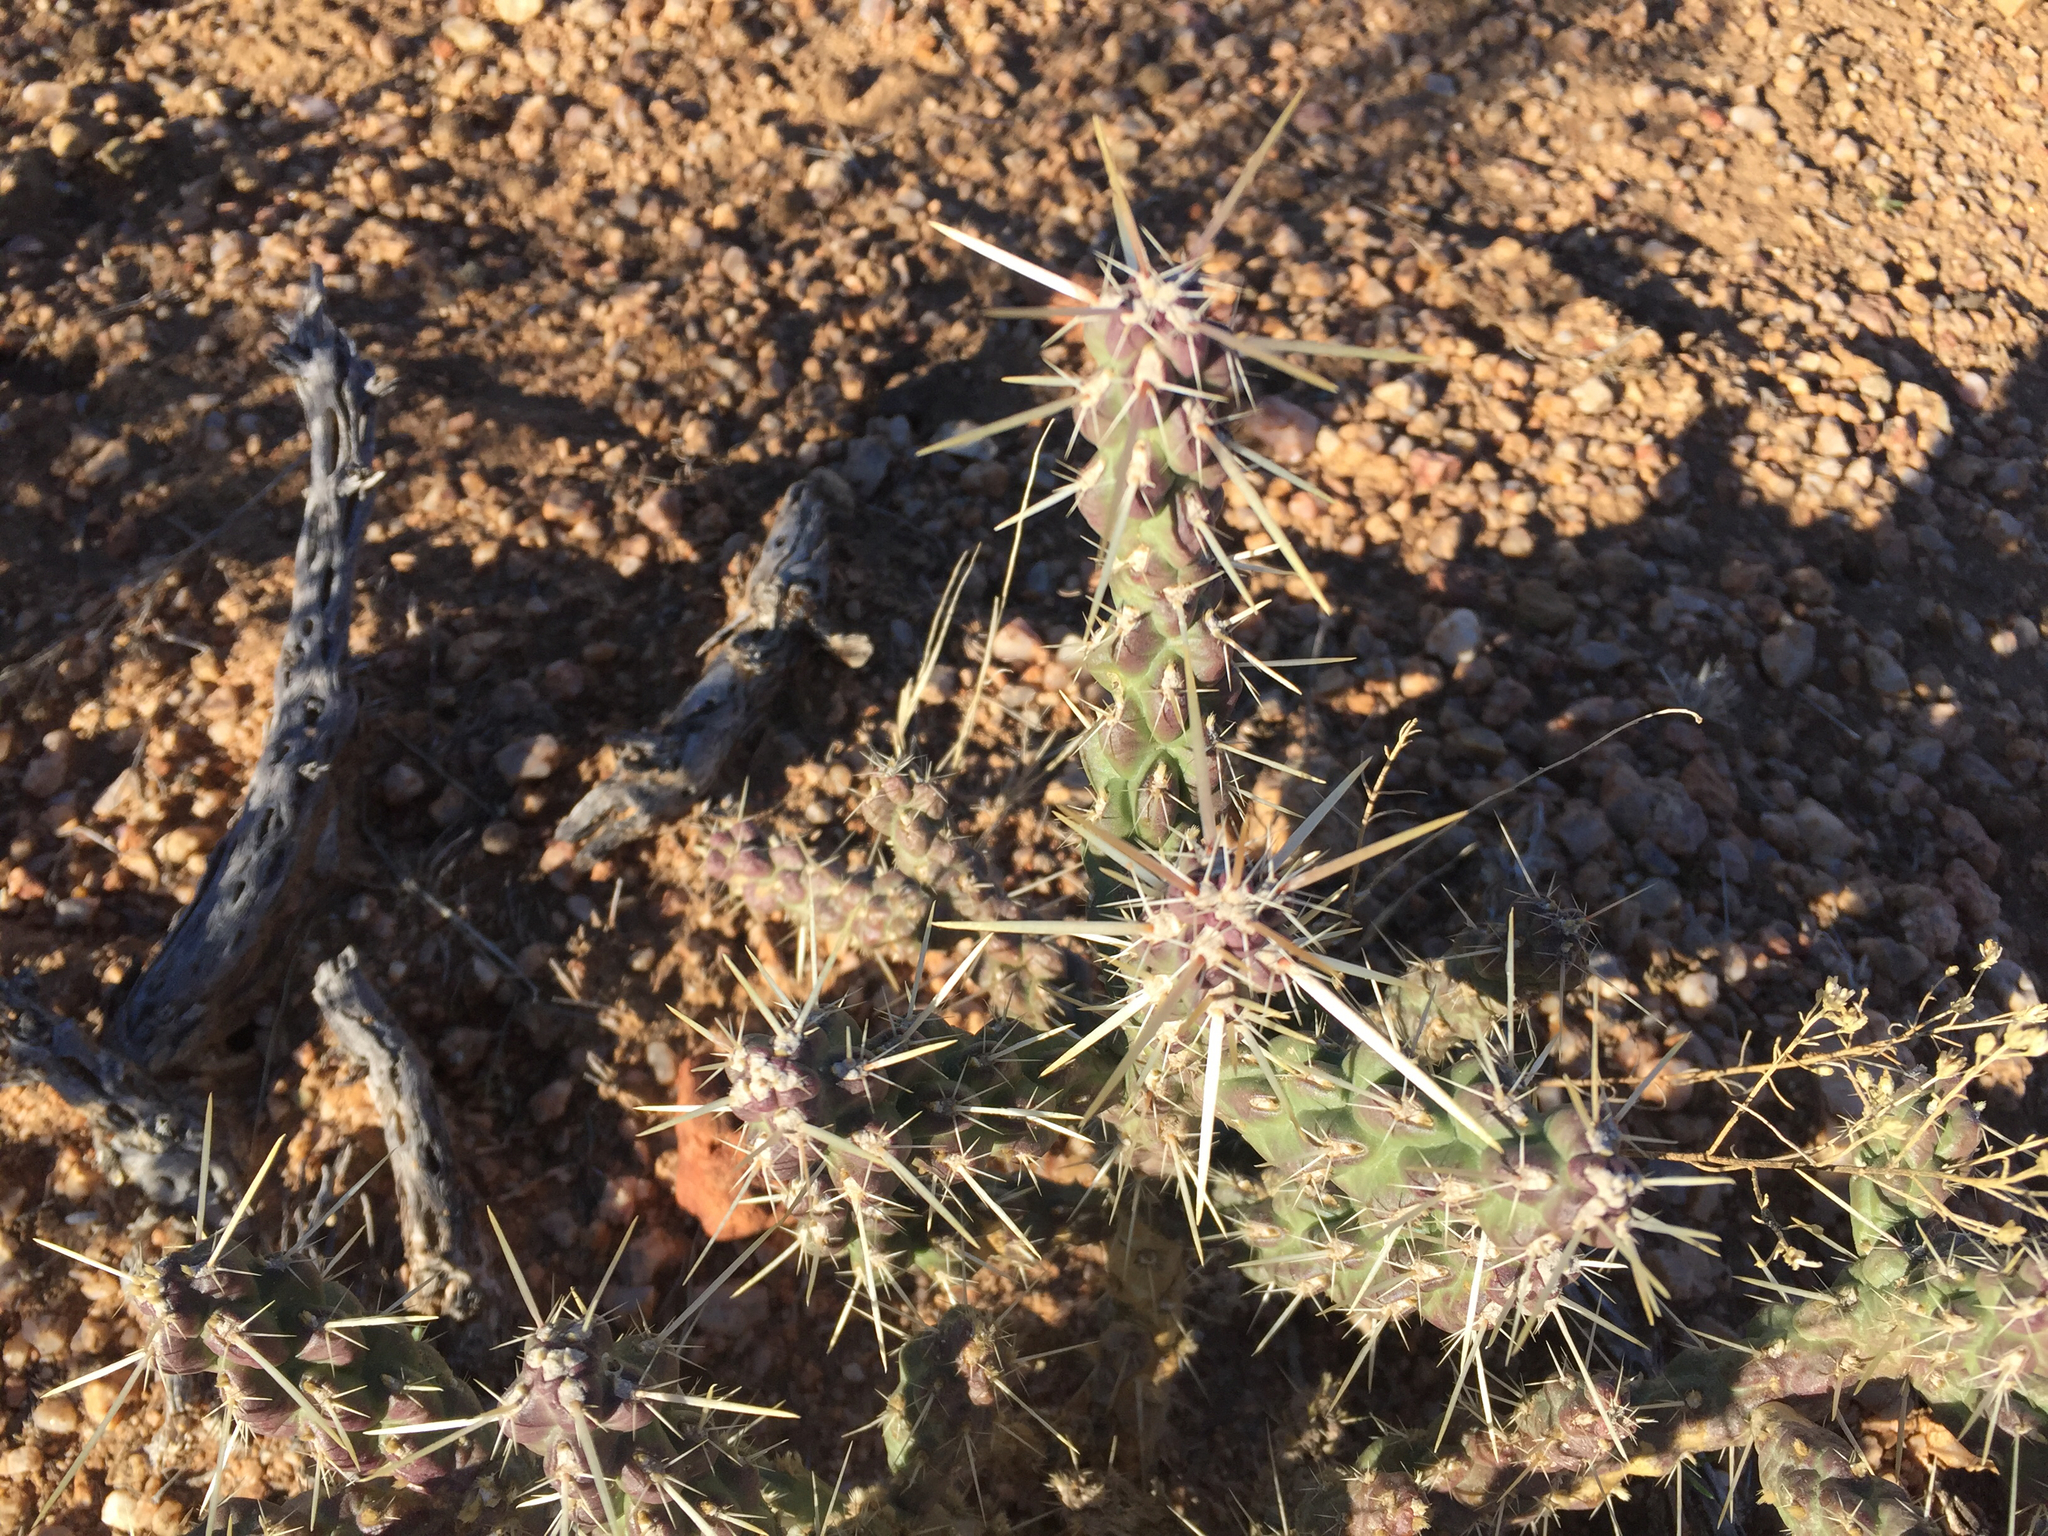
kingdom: Plantae
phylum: Tracheophyta
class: Magnoliopsida
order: Caryophyllales
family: Cactaceae
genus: Cylindropuntia
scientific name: Cylindropuntia acanthocarpa
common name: Buckhorn cholla
